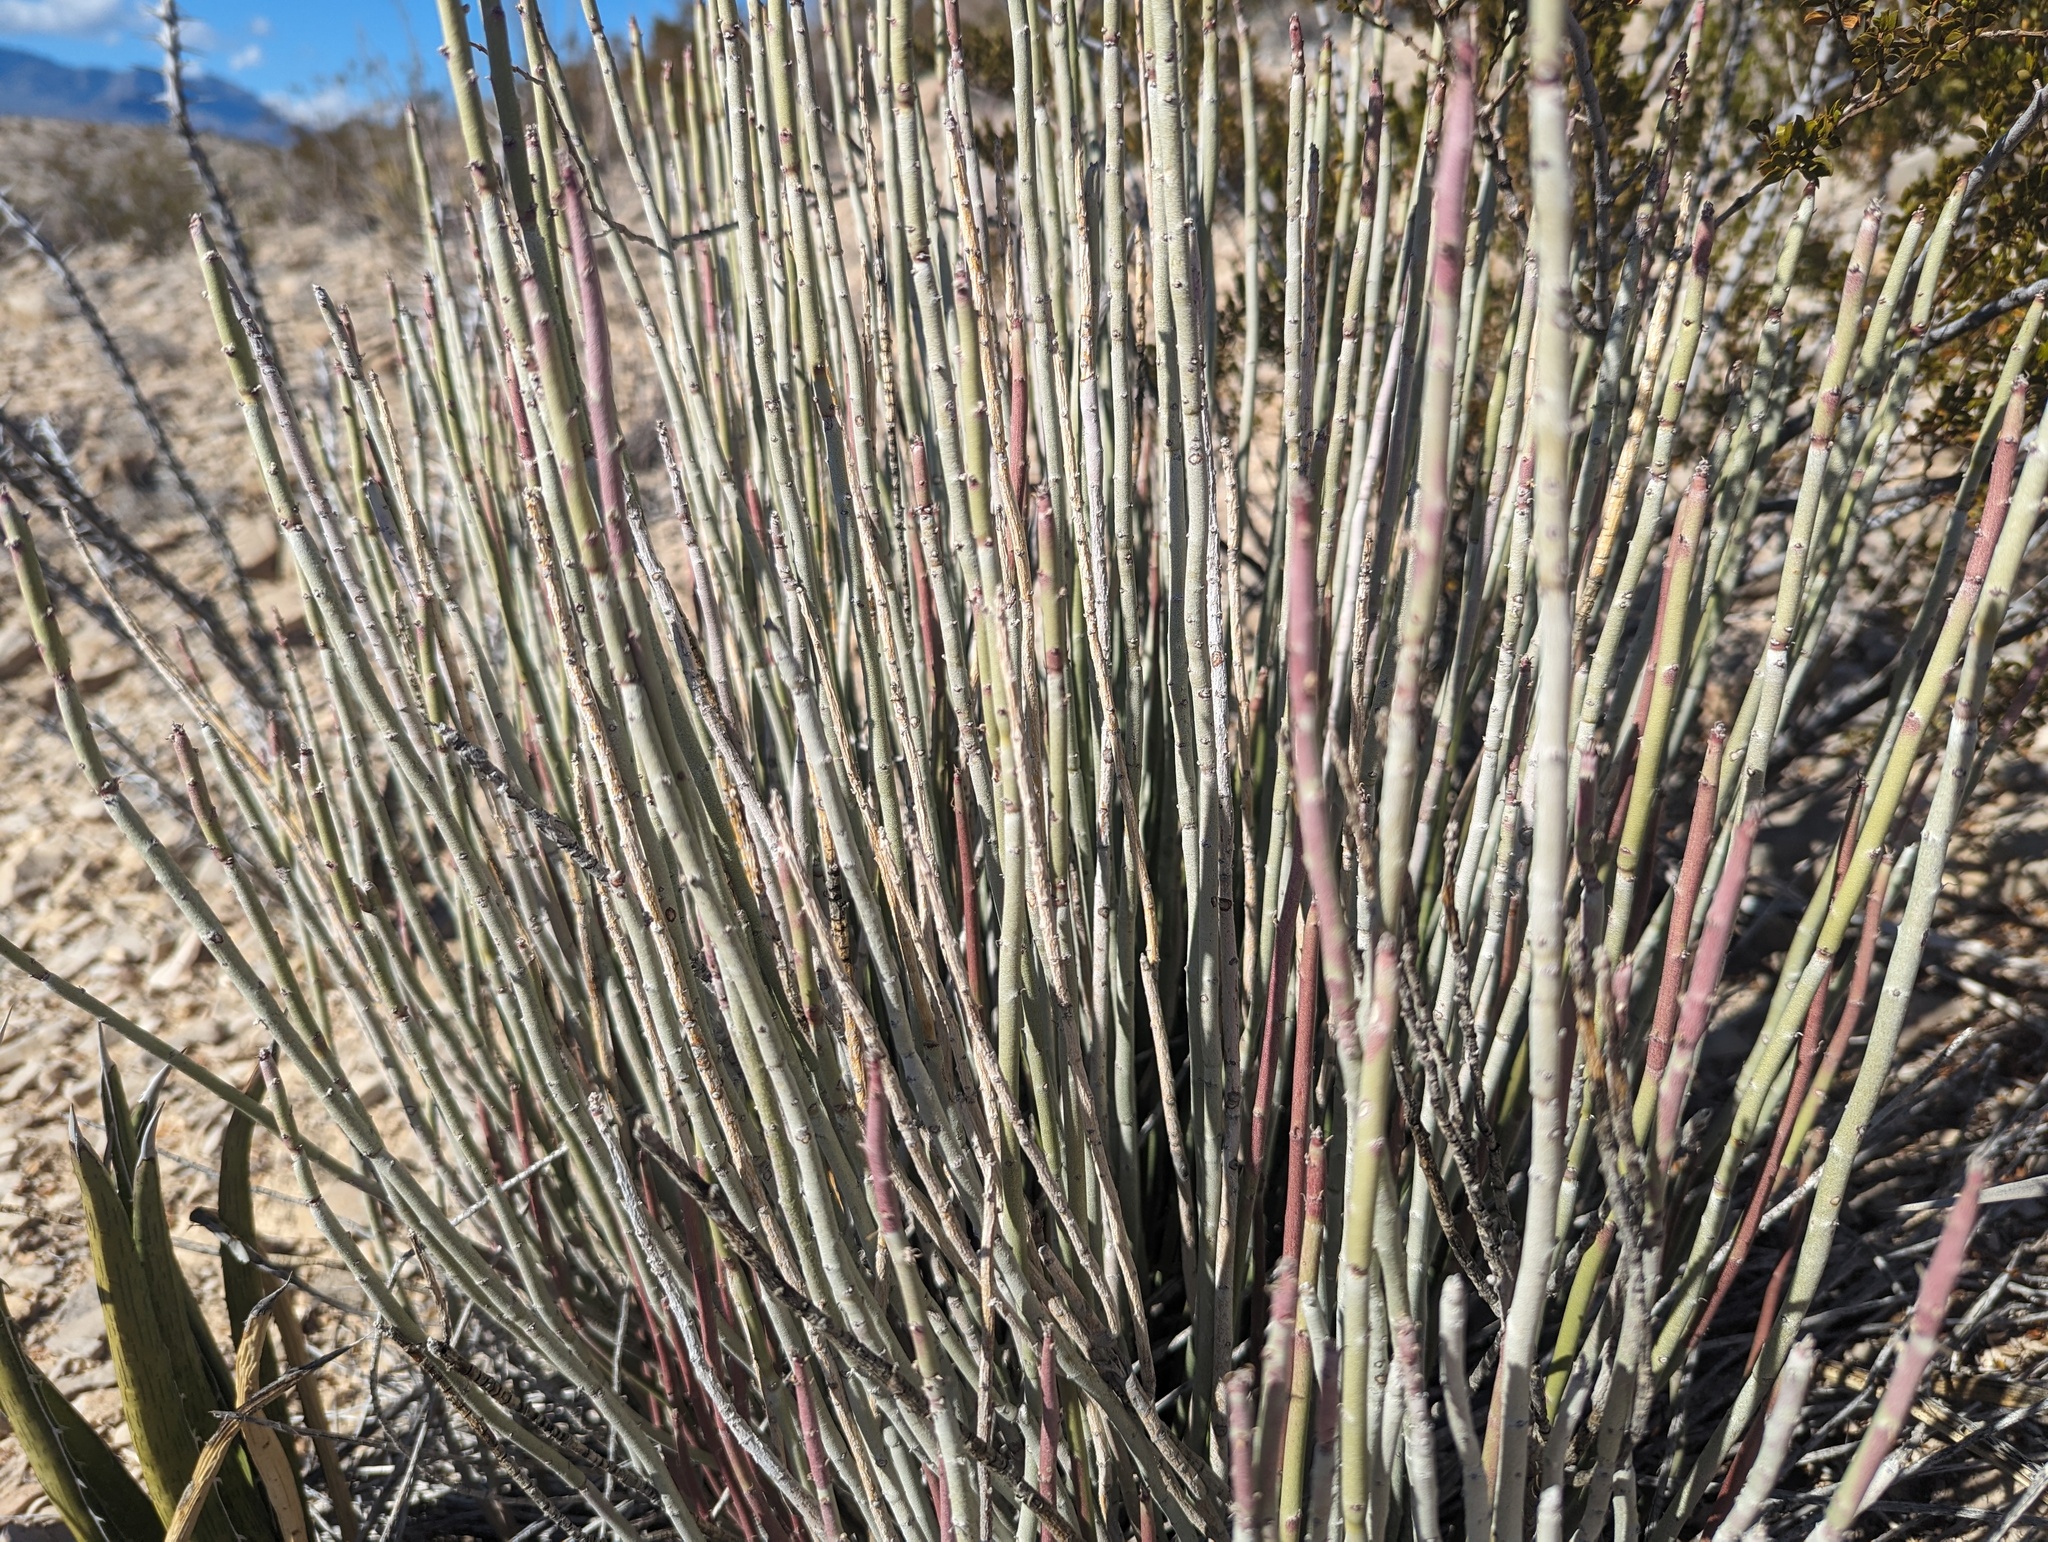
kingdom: Plantae
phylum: Tracheophyta
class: Magnoliopsida
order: Malpighiales
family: Euphorbiaceae
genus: Euphorbia
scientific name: Euphorbia antisyphilitica
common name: Candelilla
